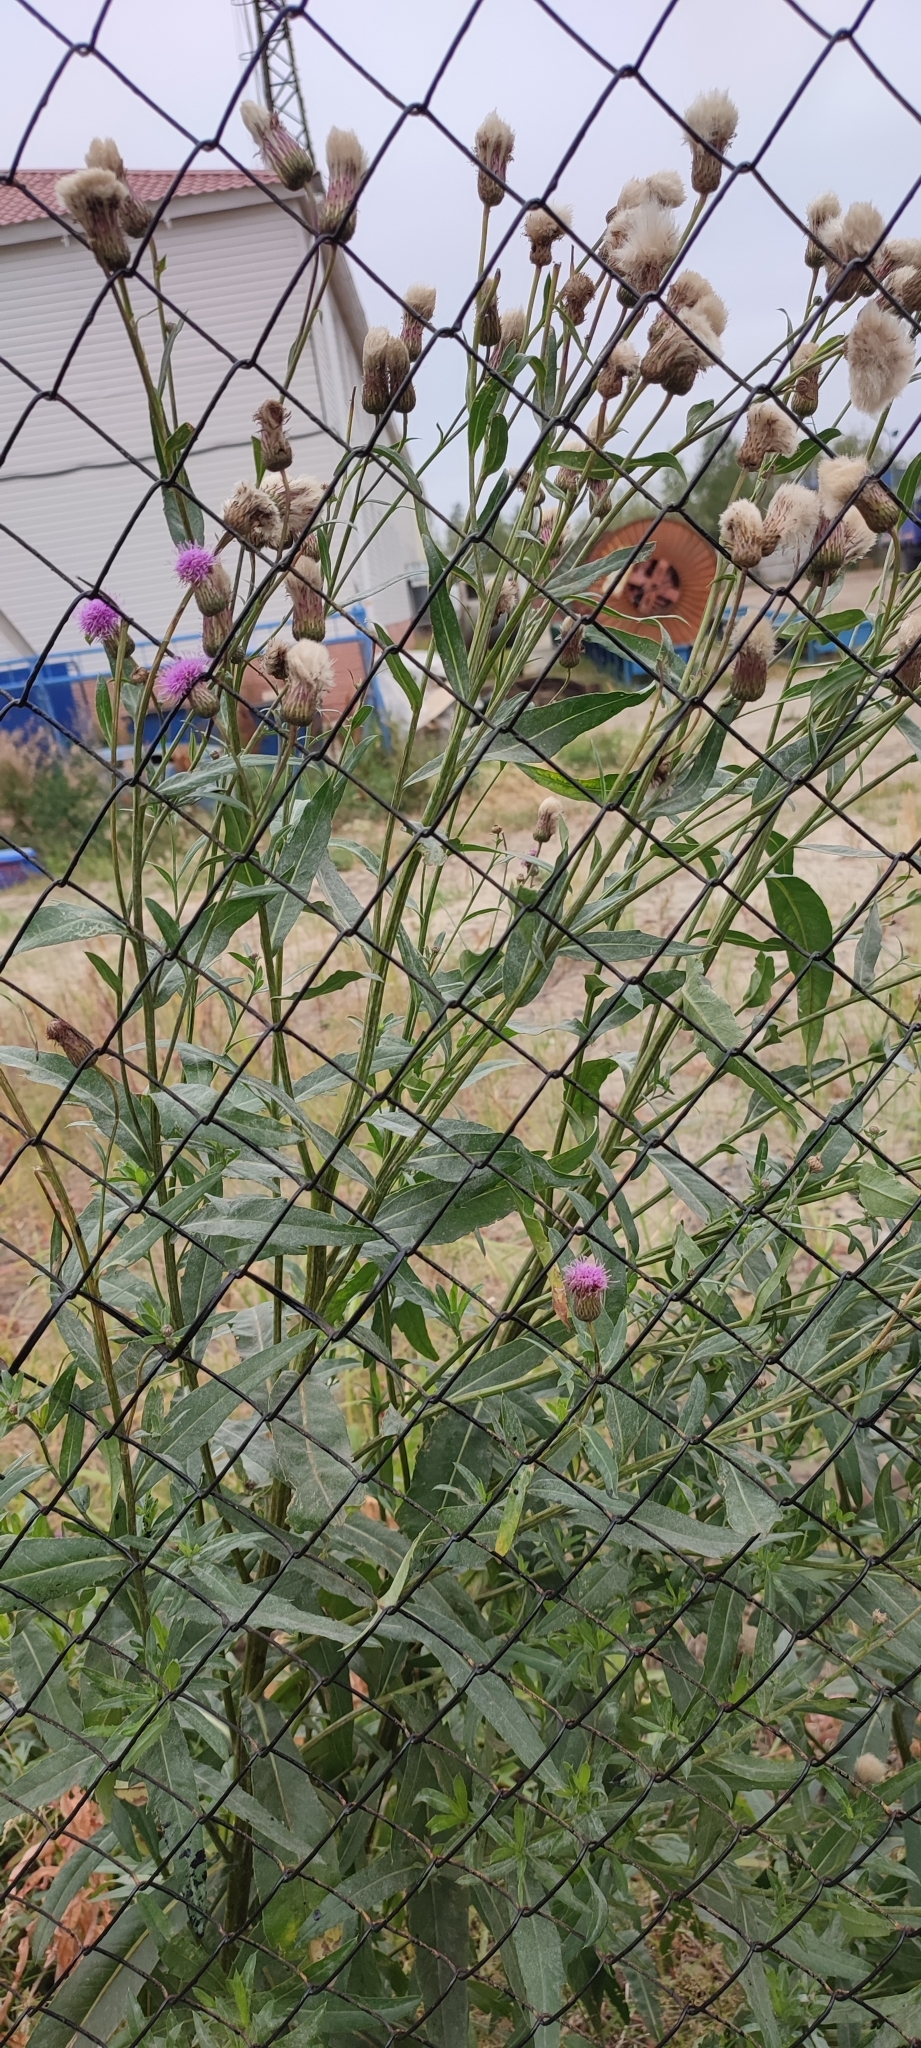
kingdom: Plantae
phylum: Tracheophyta
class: Magnoliopsida
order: Asterales
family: Asteraceae
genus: Cirsium
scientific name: Cirsium arvense
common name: Creeping thistle
